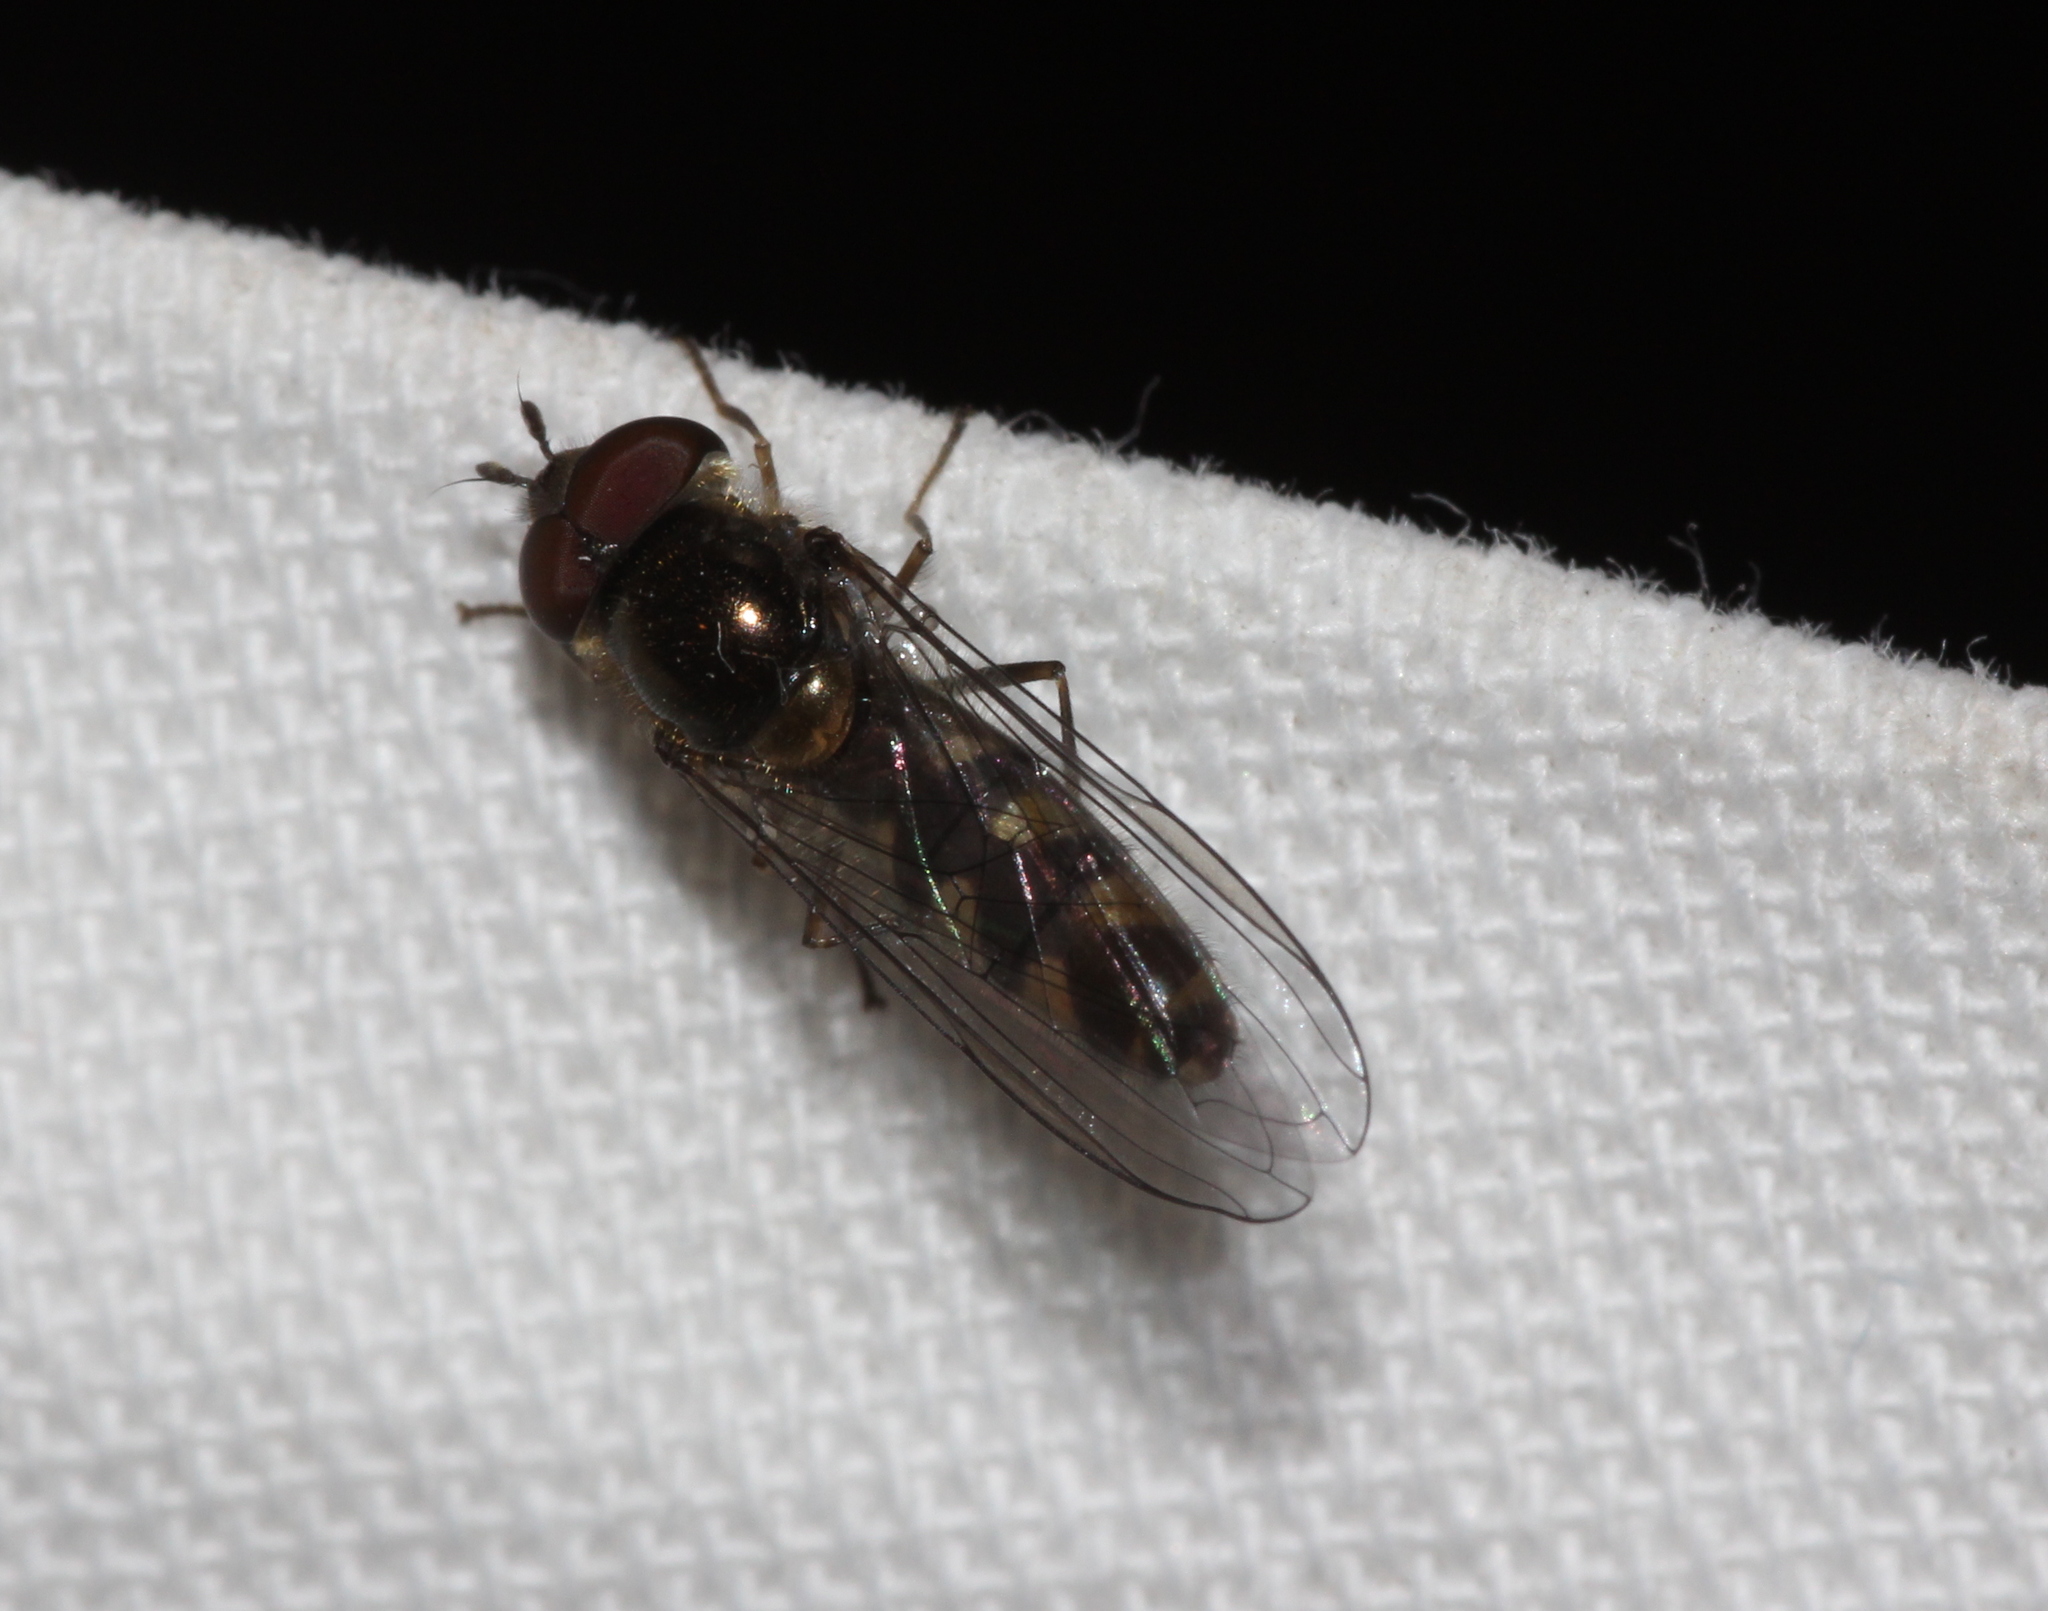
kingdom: Animalia
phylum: Arthropoda
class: Insecta
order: Diptera
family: Syrphidae
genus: Meliscaeva
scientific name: Meliscaeva auricollis
